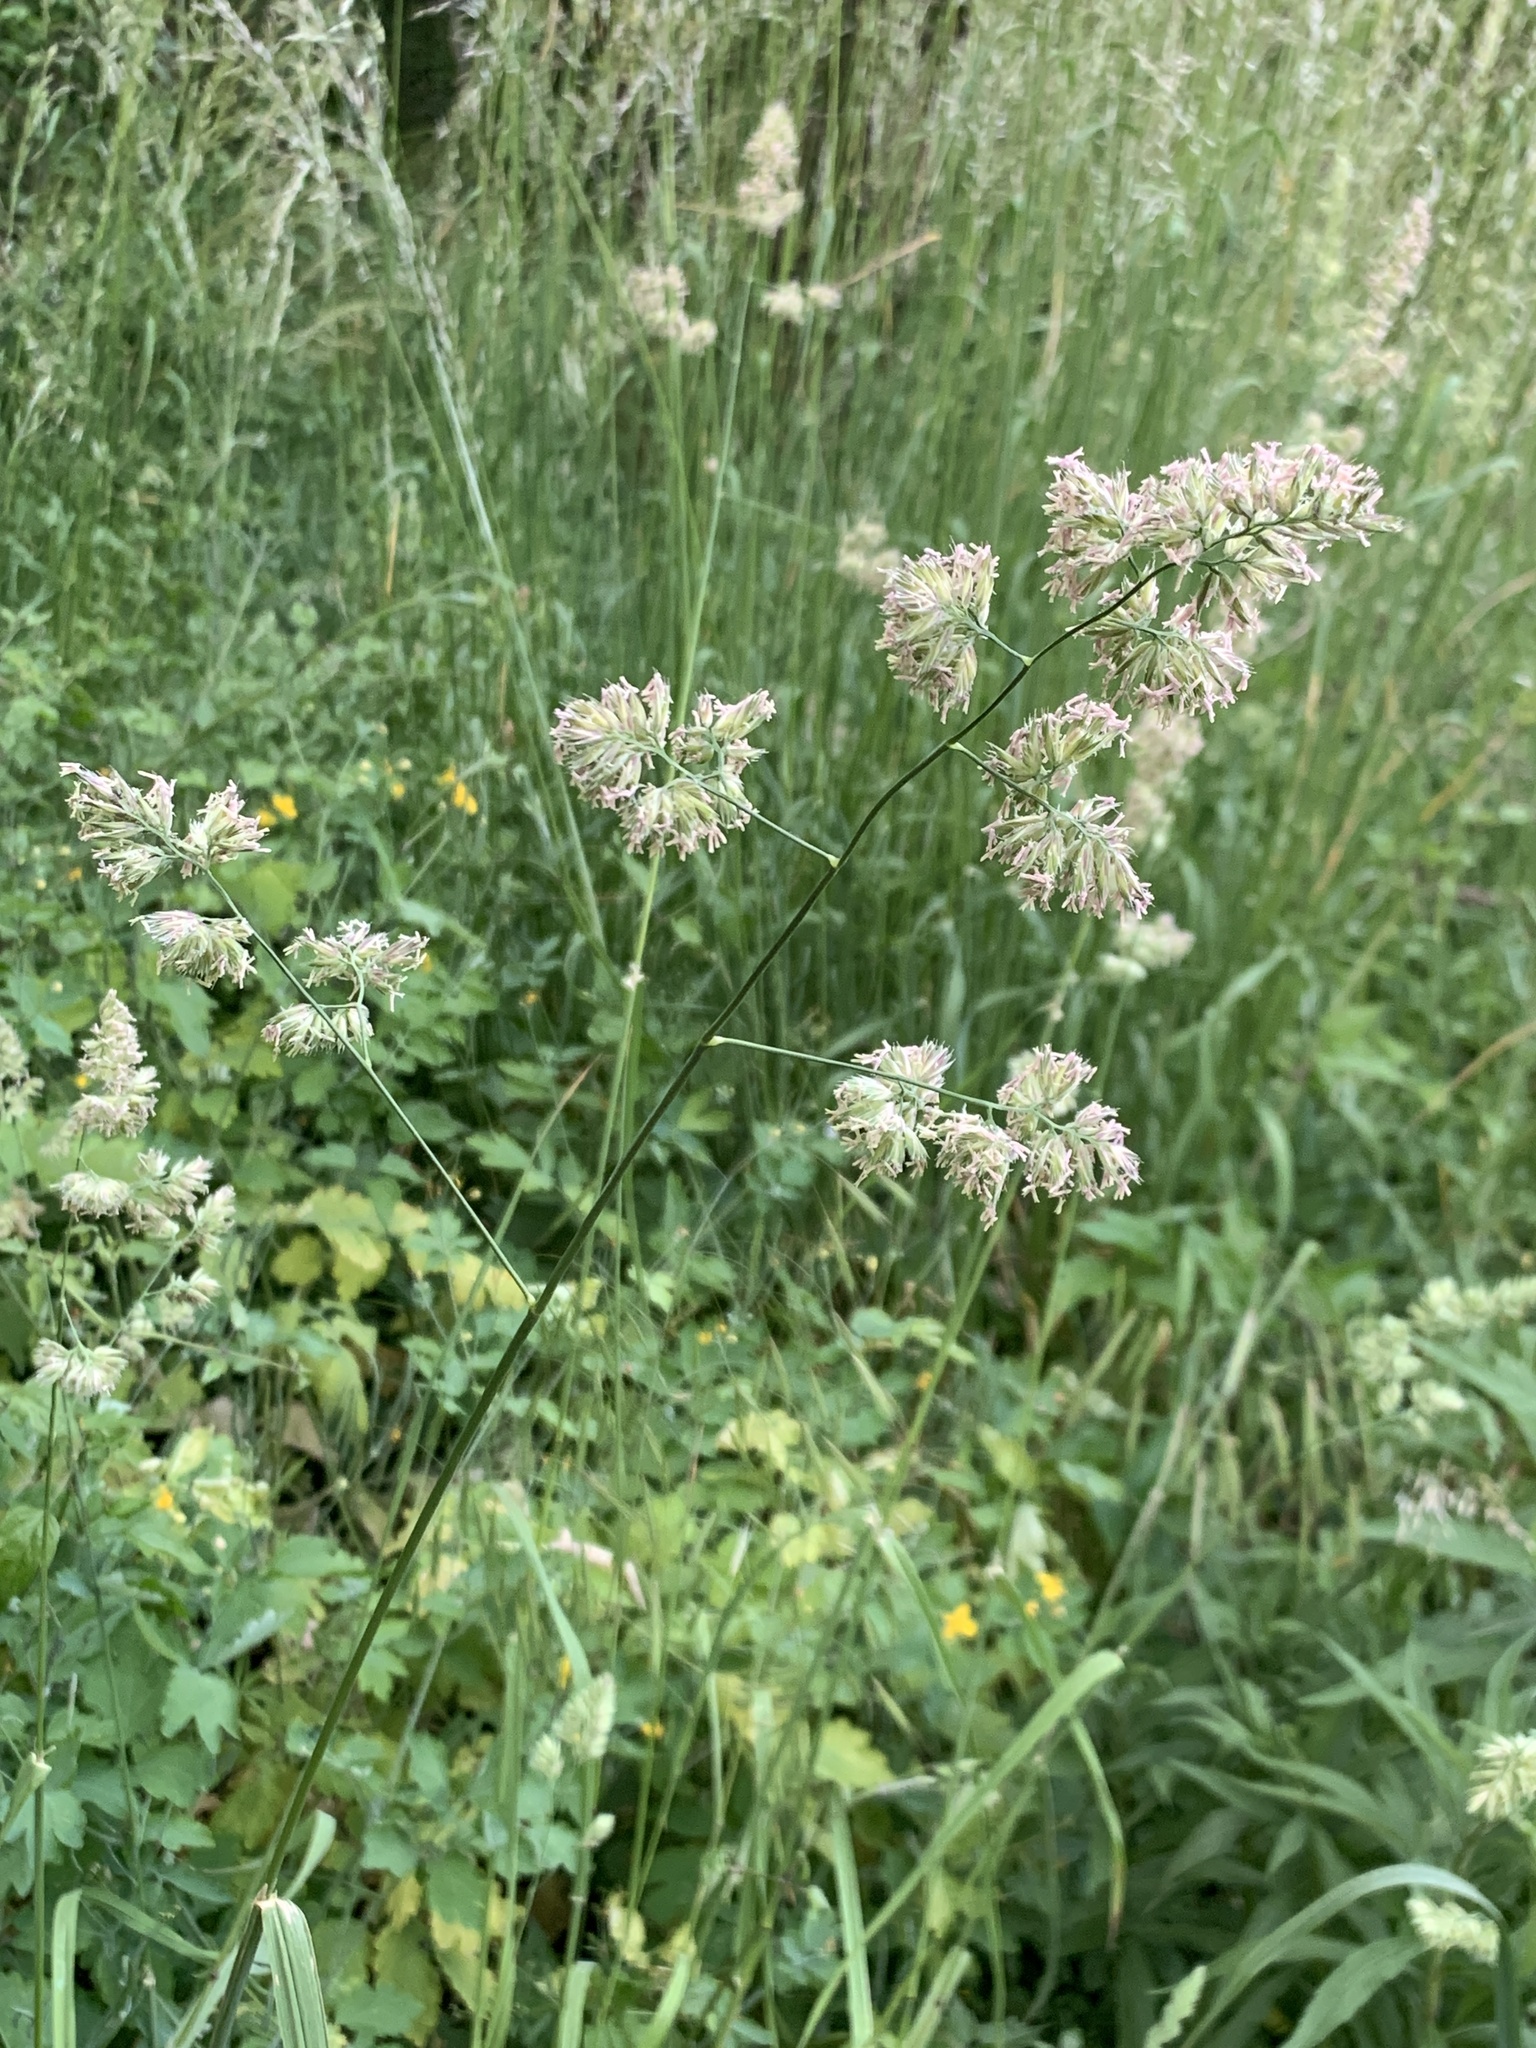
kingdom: Plantae
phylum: Tracheophyta
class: Liliopsida
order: Poales
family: Poaceae
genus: Dactylis
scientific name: Dactylis glomerata
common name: Orchardgrass
